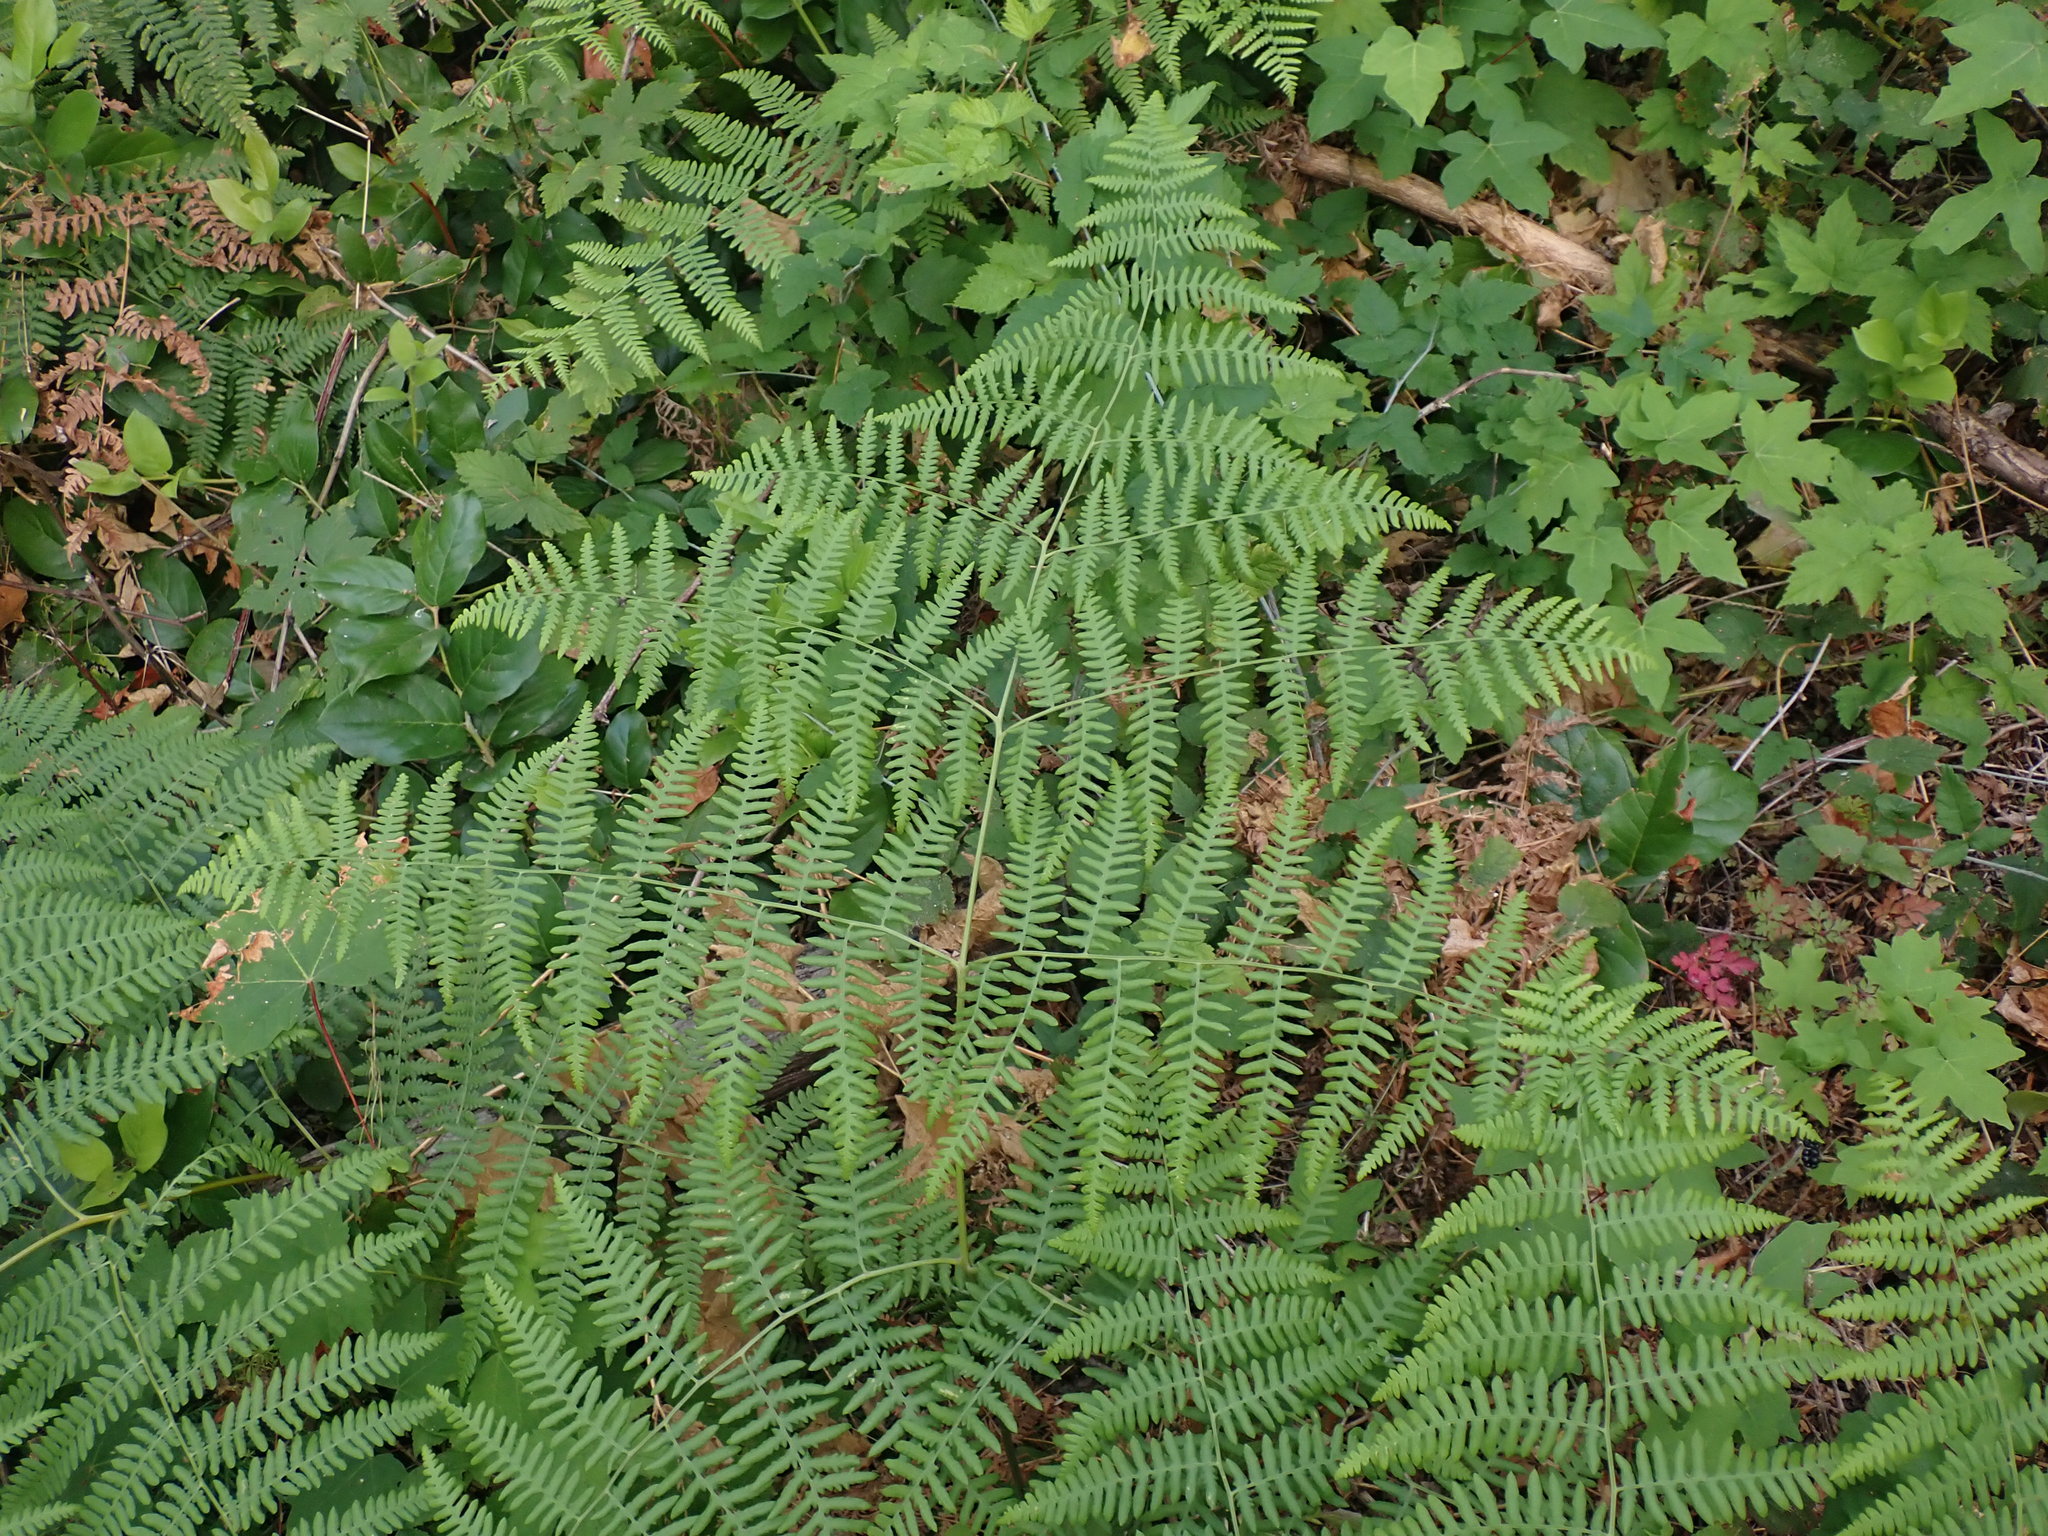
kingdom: Plantae
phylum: Tracheophyta
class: Polypodiopsida
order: Polypodiales
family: Dennstaedtiaceae
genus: Pteridium
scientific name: Pteridium aquilinum
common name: Bracken
